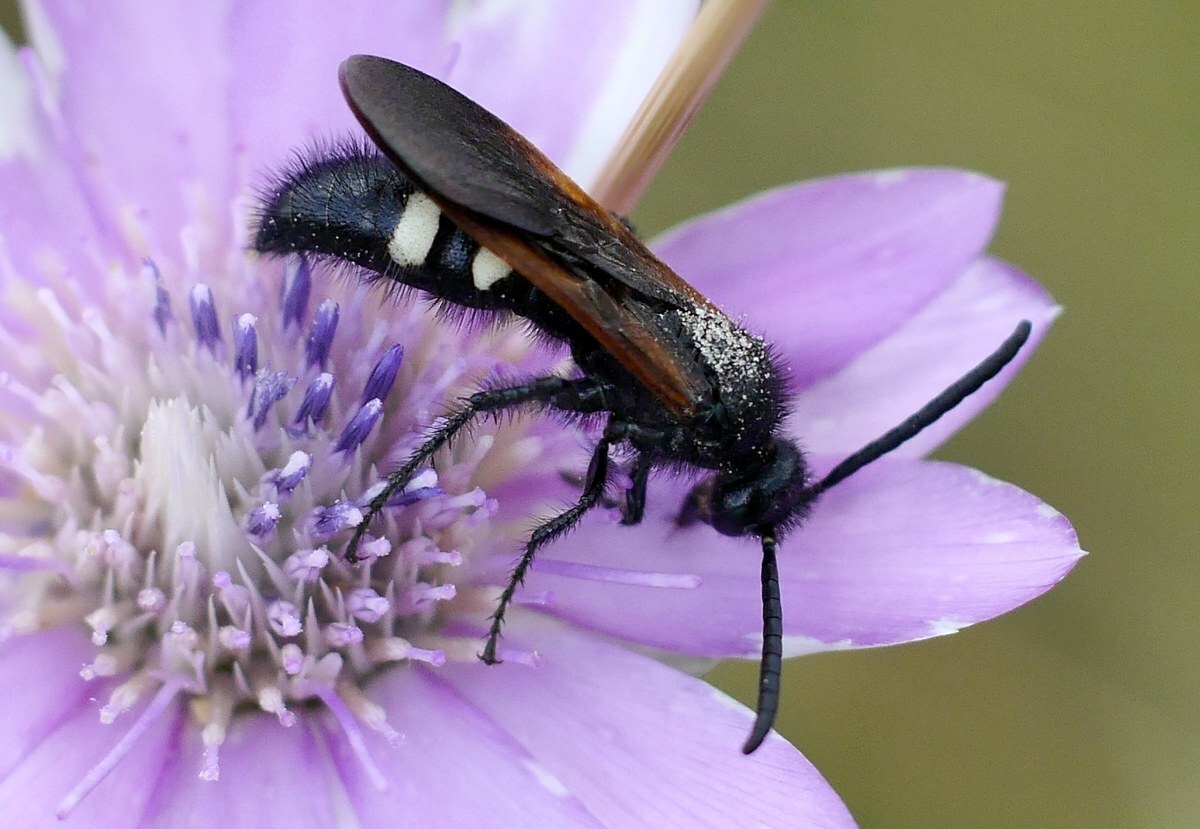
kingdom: Animalia
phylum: Arthropoda
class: Insecta
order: Hymenoptera
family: Vespidae
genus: Vespa
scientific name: Vespa sexmaculata
